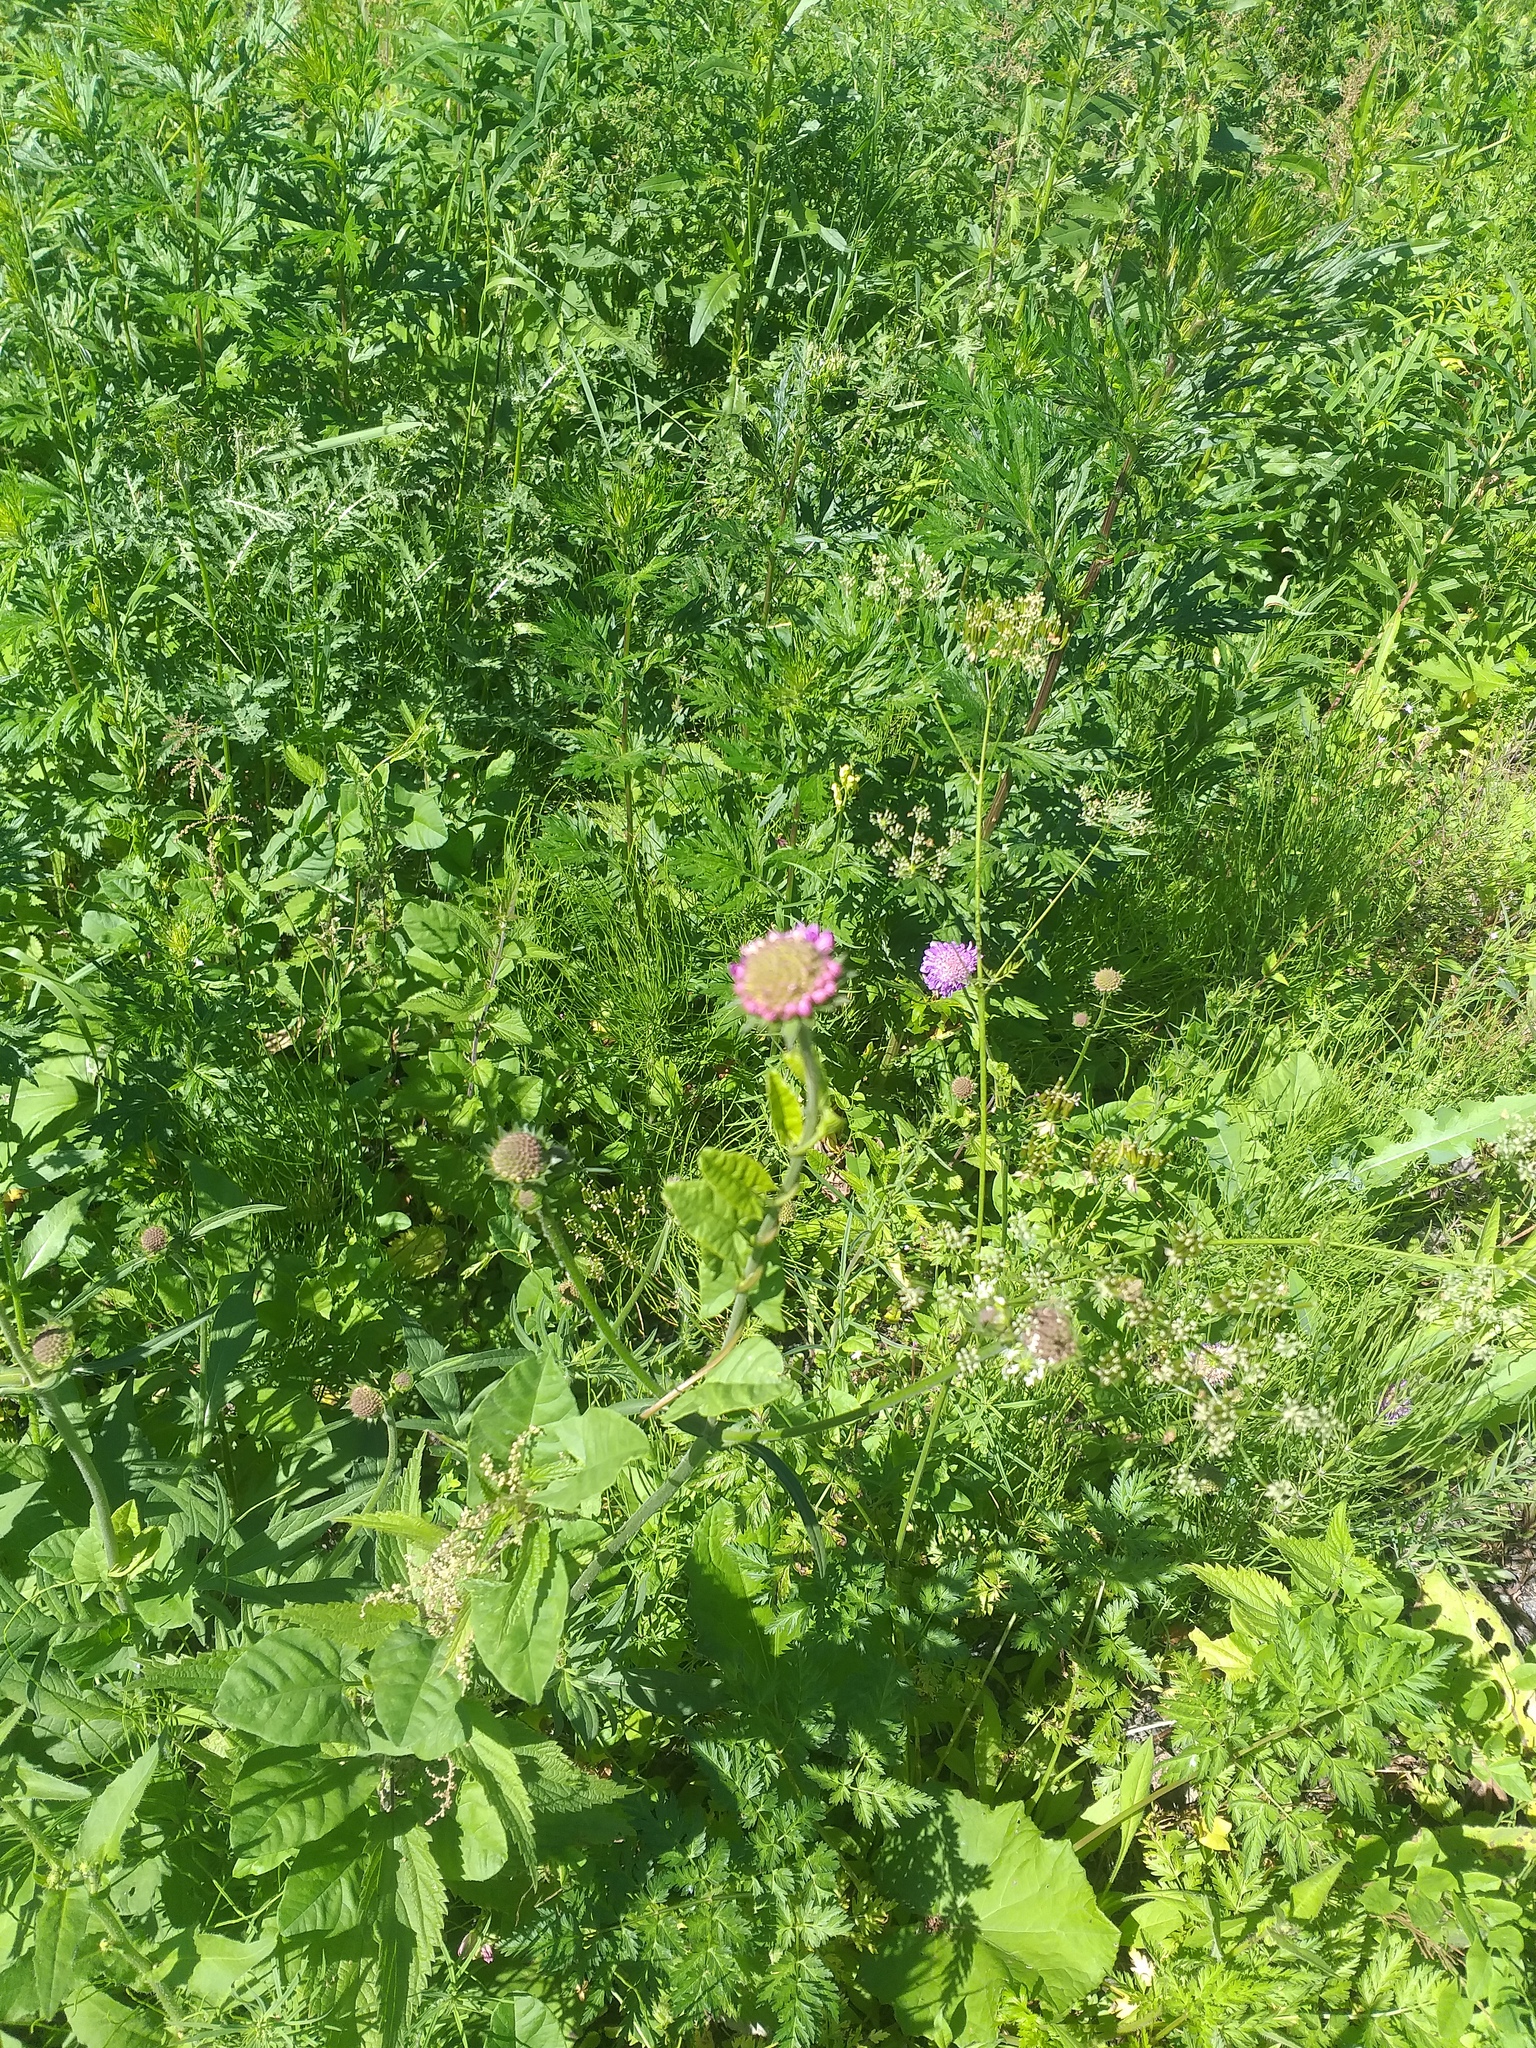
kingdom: Plantae
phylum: Tracheophyta
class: Magnoliopsida
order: Dipsacales
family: Caprifoliaceae
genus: Knautia
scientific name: Knautia arvensis
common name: Field scabiosa
